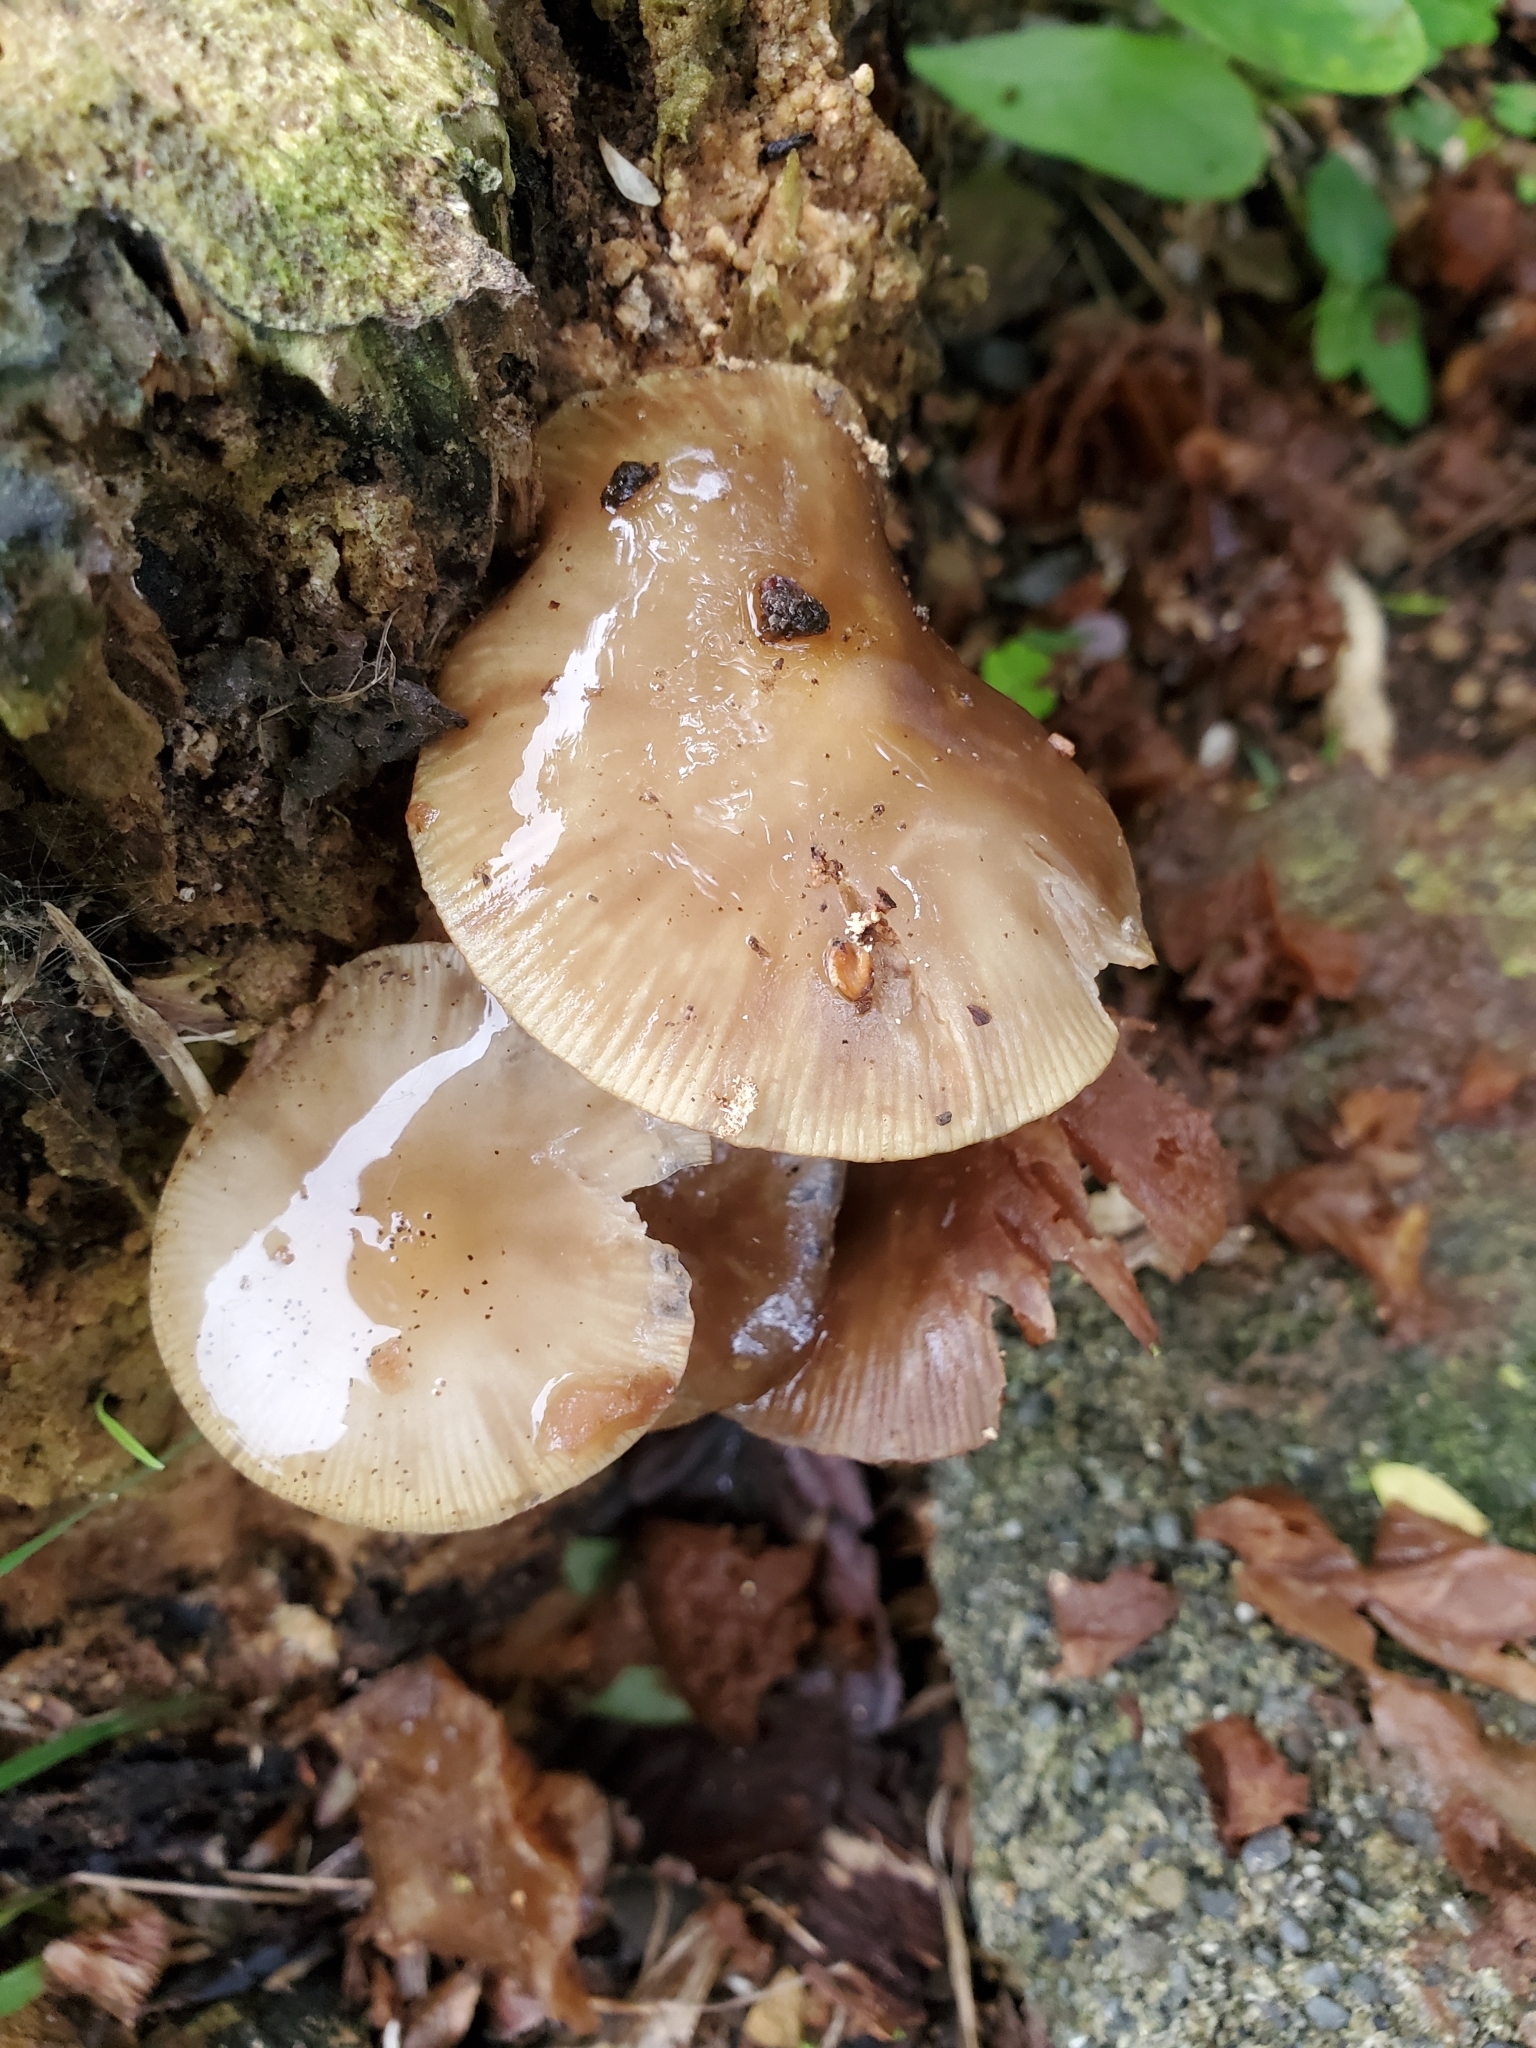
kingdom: Fungi
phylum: Basidiomycota
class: Agaricomycetes
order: Agaricales
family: Physalacriaceae
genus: Armillaria
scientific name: Armillaria novae-zelandiae
